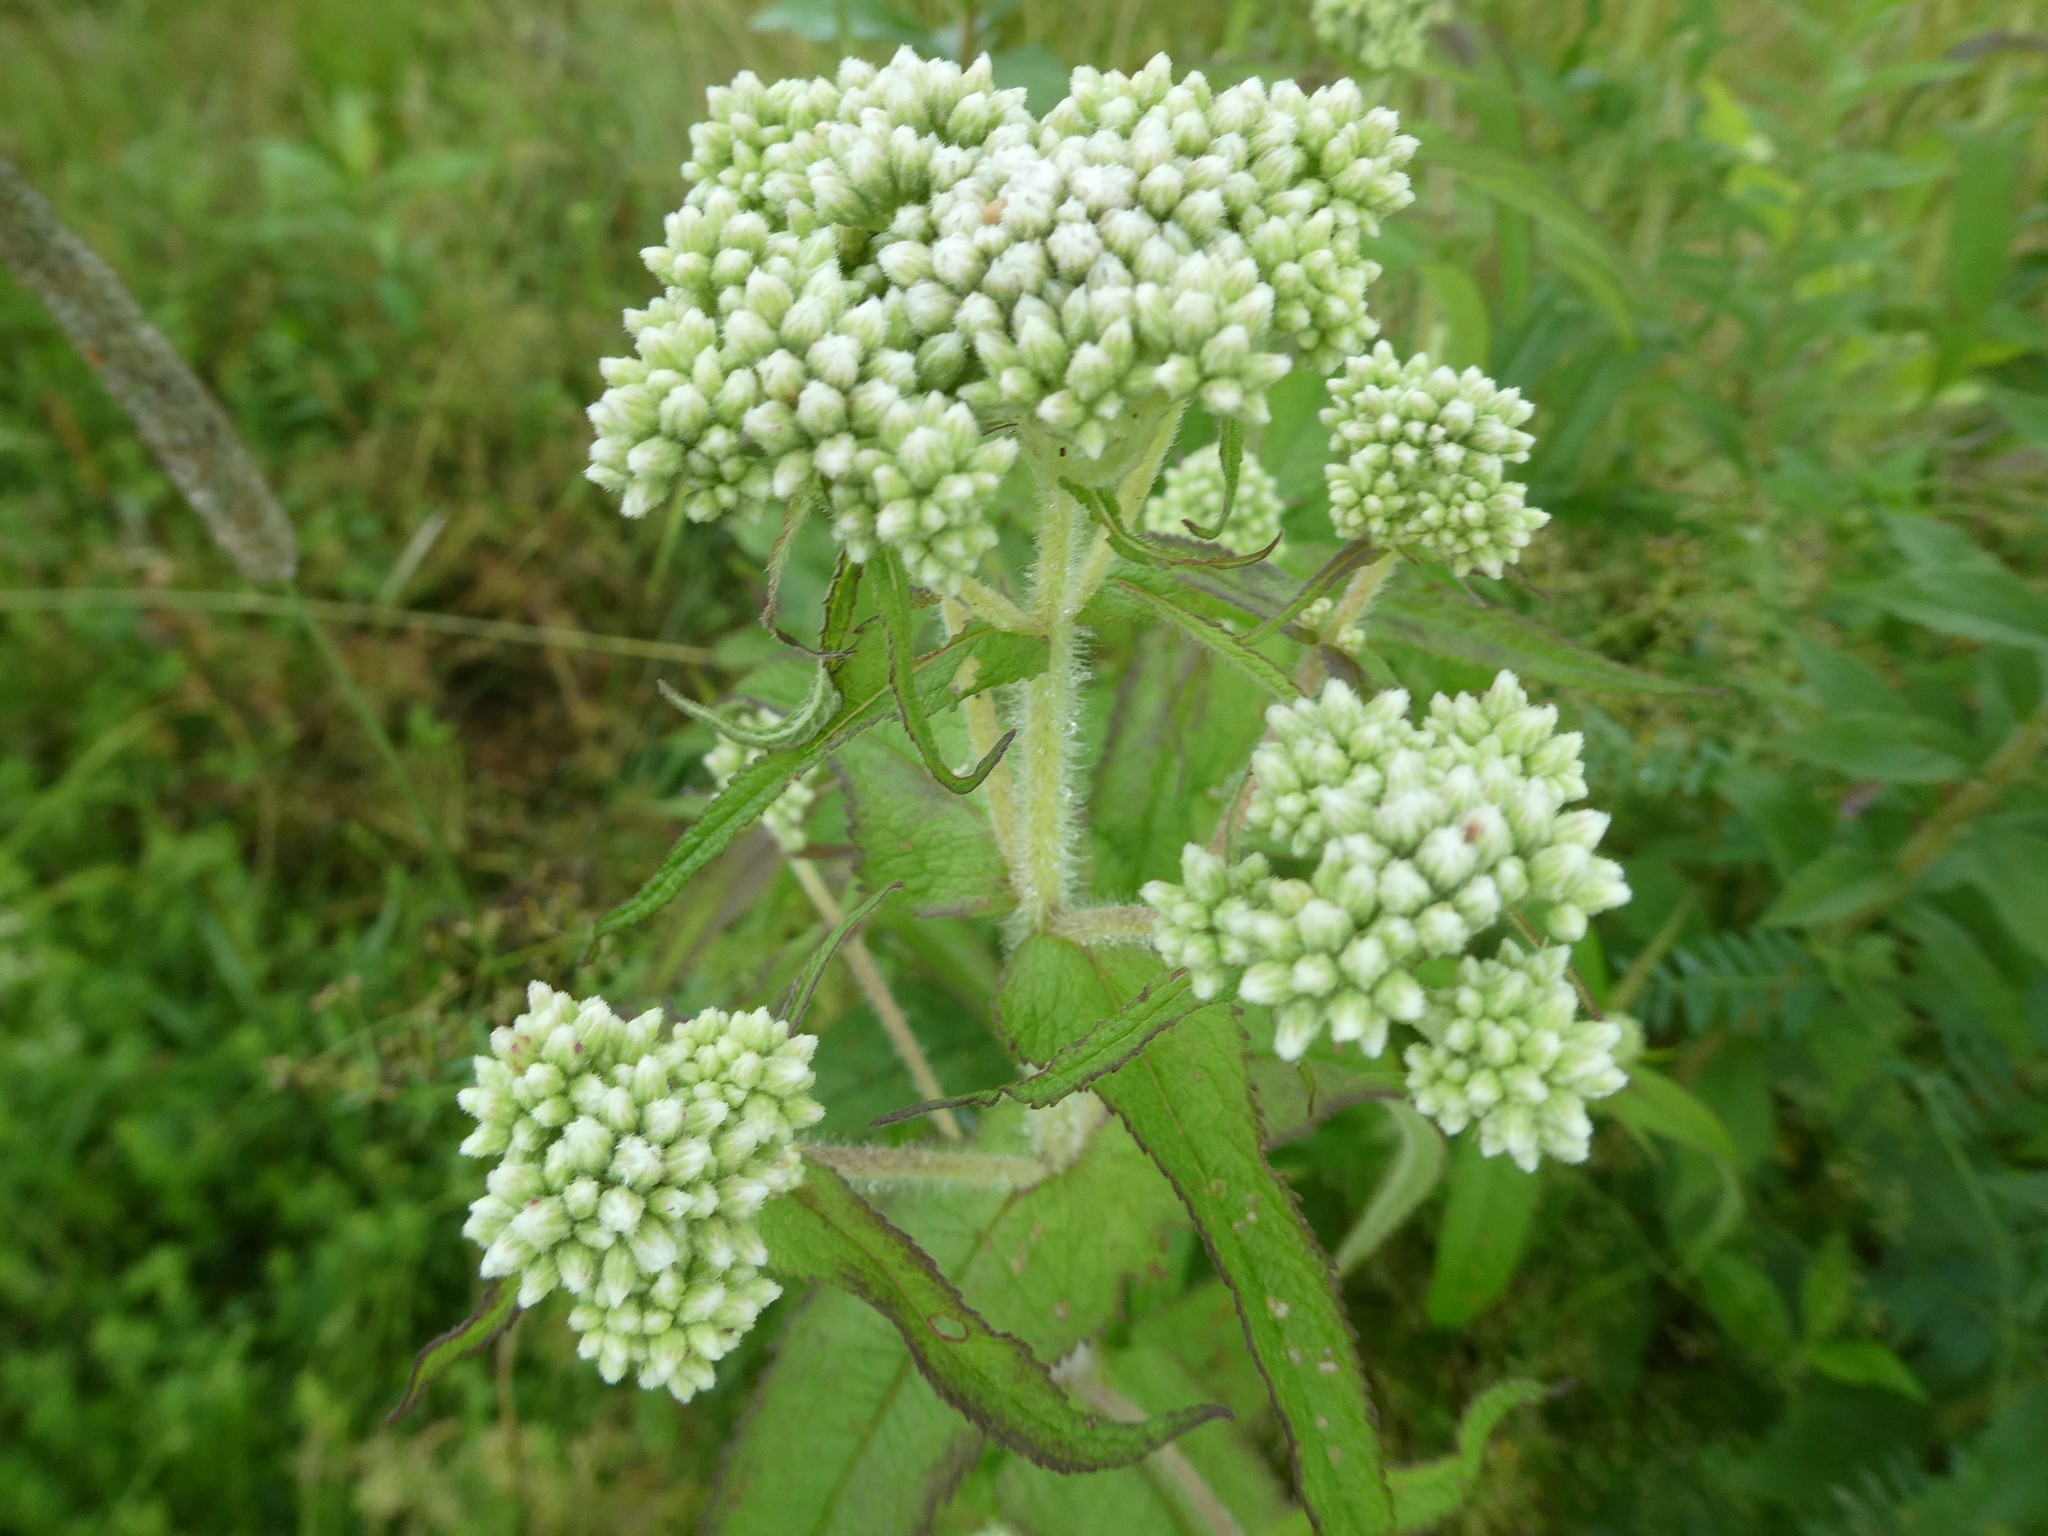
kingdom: Plantae
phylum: Tracheophyta
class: Magnoliopsida
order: Asterales
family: Asteraceae
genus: Eupatorium
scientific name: Eupatorium perfoliatum
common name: Boneset
